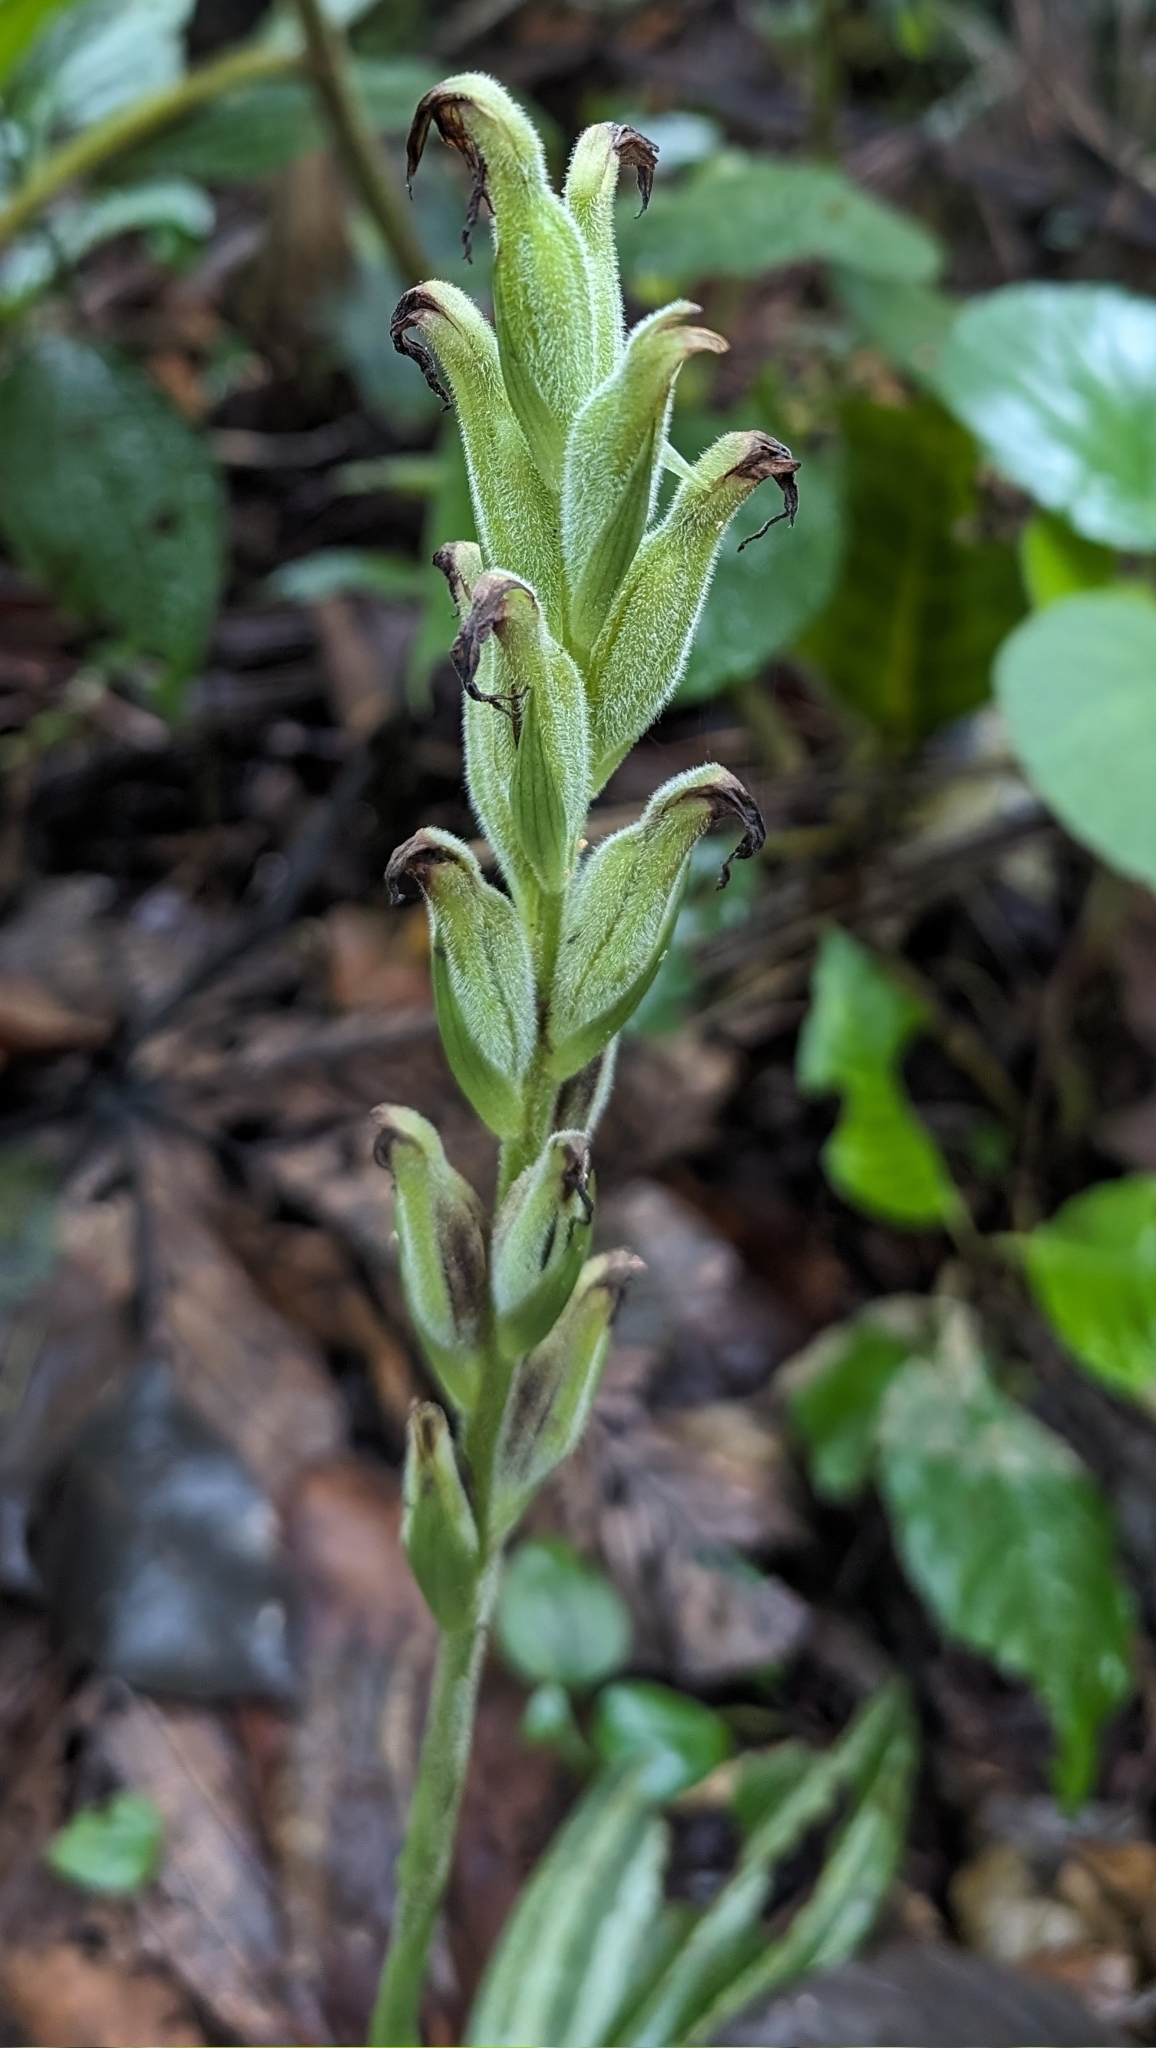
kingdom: Plantae
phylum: Tracheophyta
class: Liliopsida
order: Asparagales
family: Orchidaceae
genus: Sarcoglottis
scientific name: Sarcoglottis acaulis
